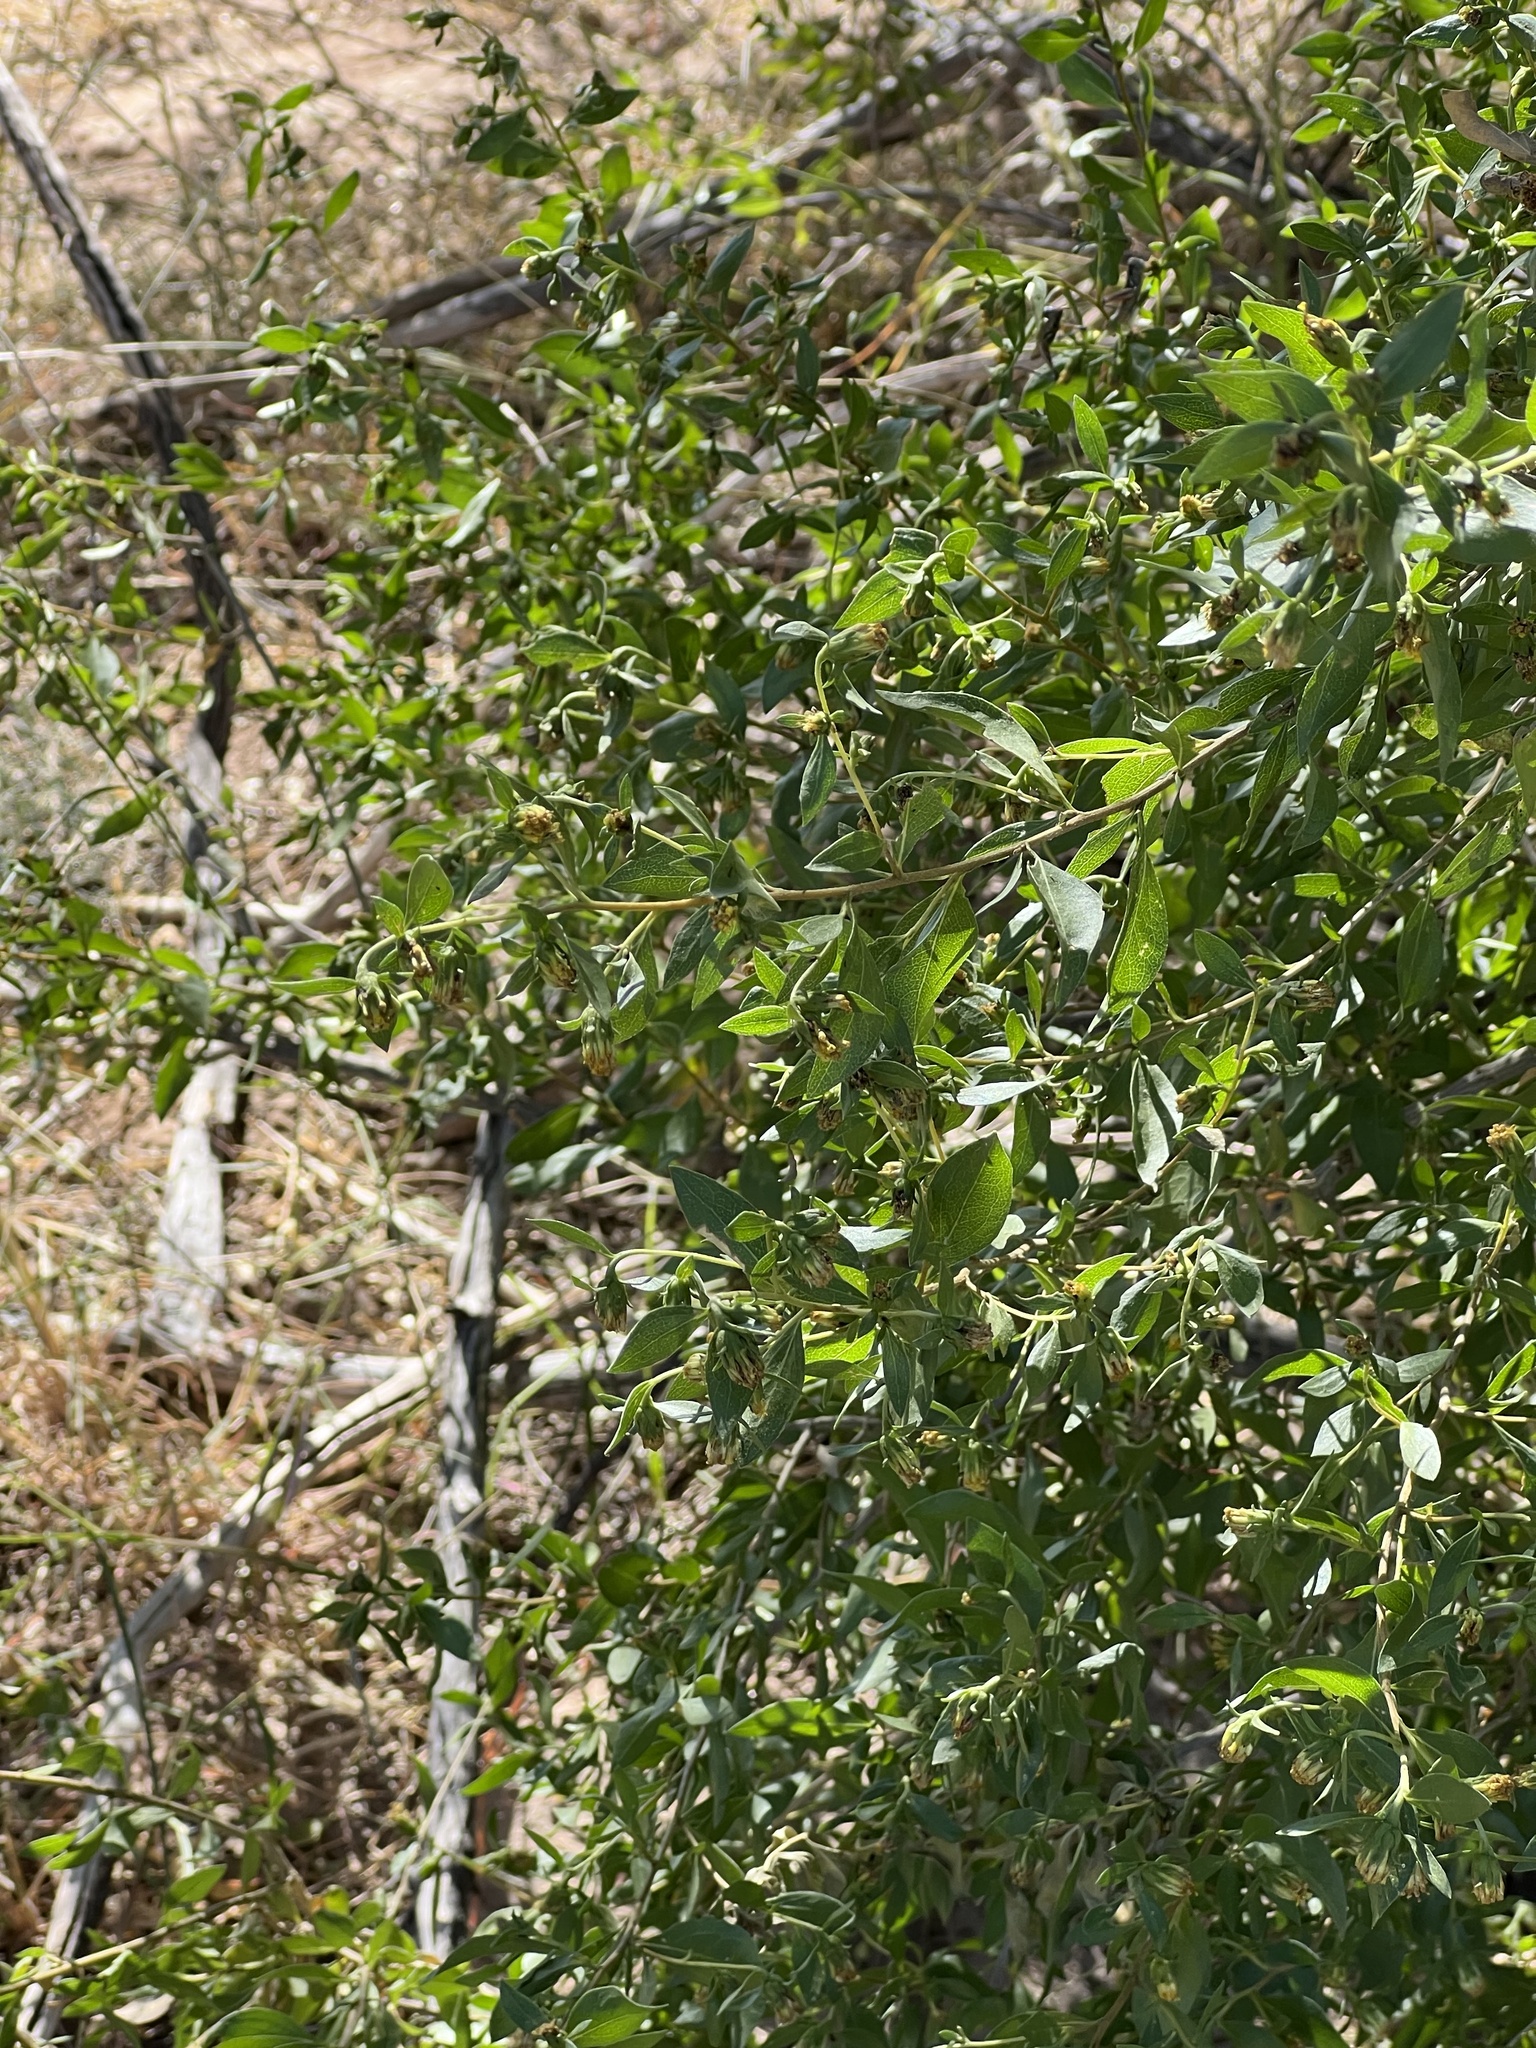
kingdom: Plantae
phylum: Tracheophyta
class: Magnoliopsida
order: Asterales
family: Asteraceae
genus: Flourensia
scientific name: Flourensia cernua
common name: Varnishbush
